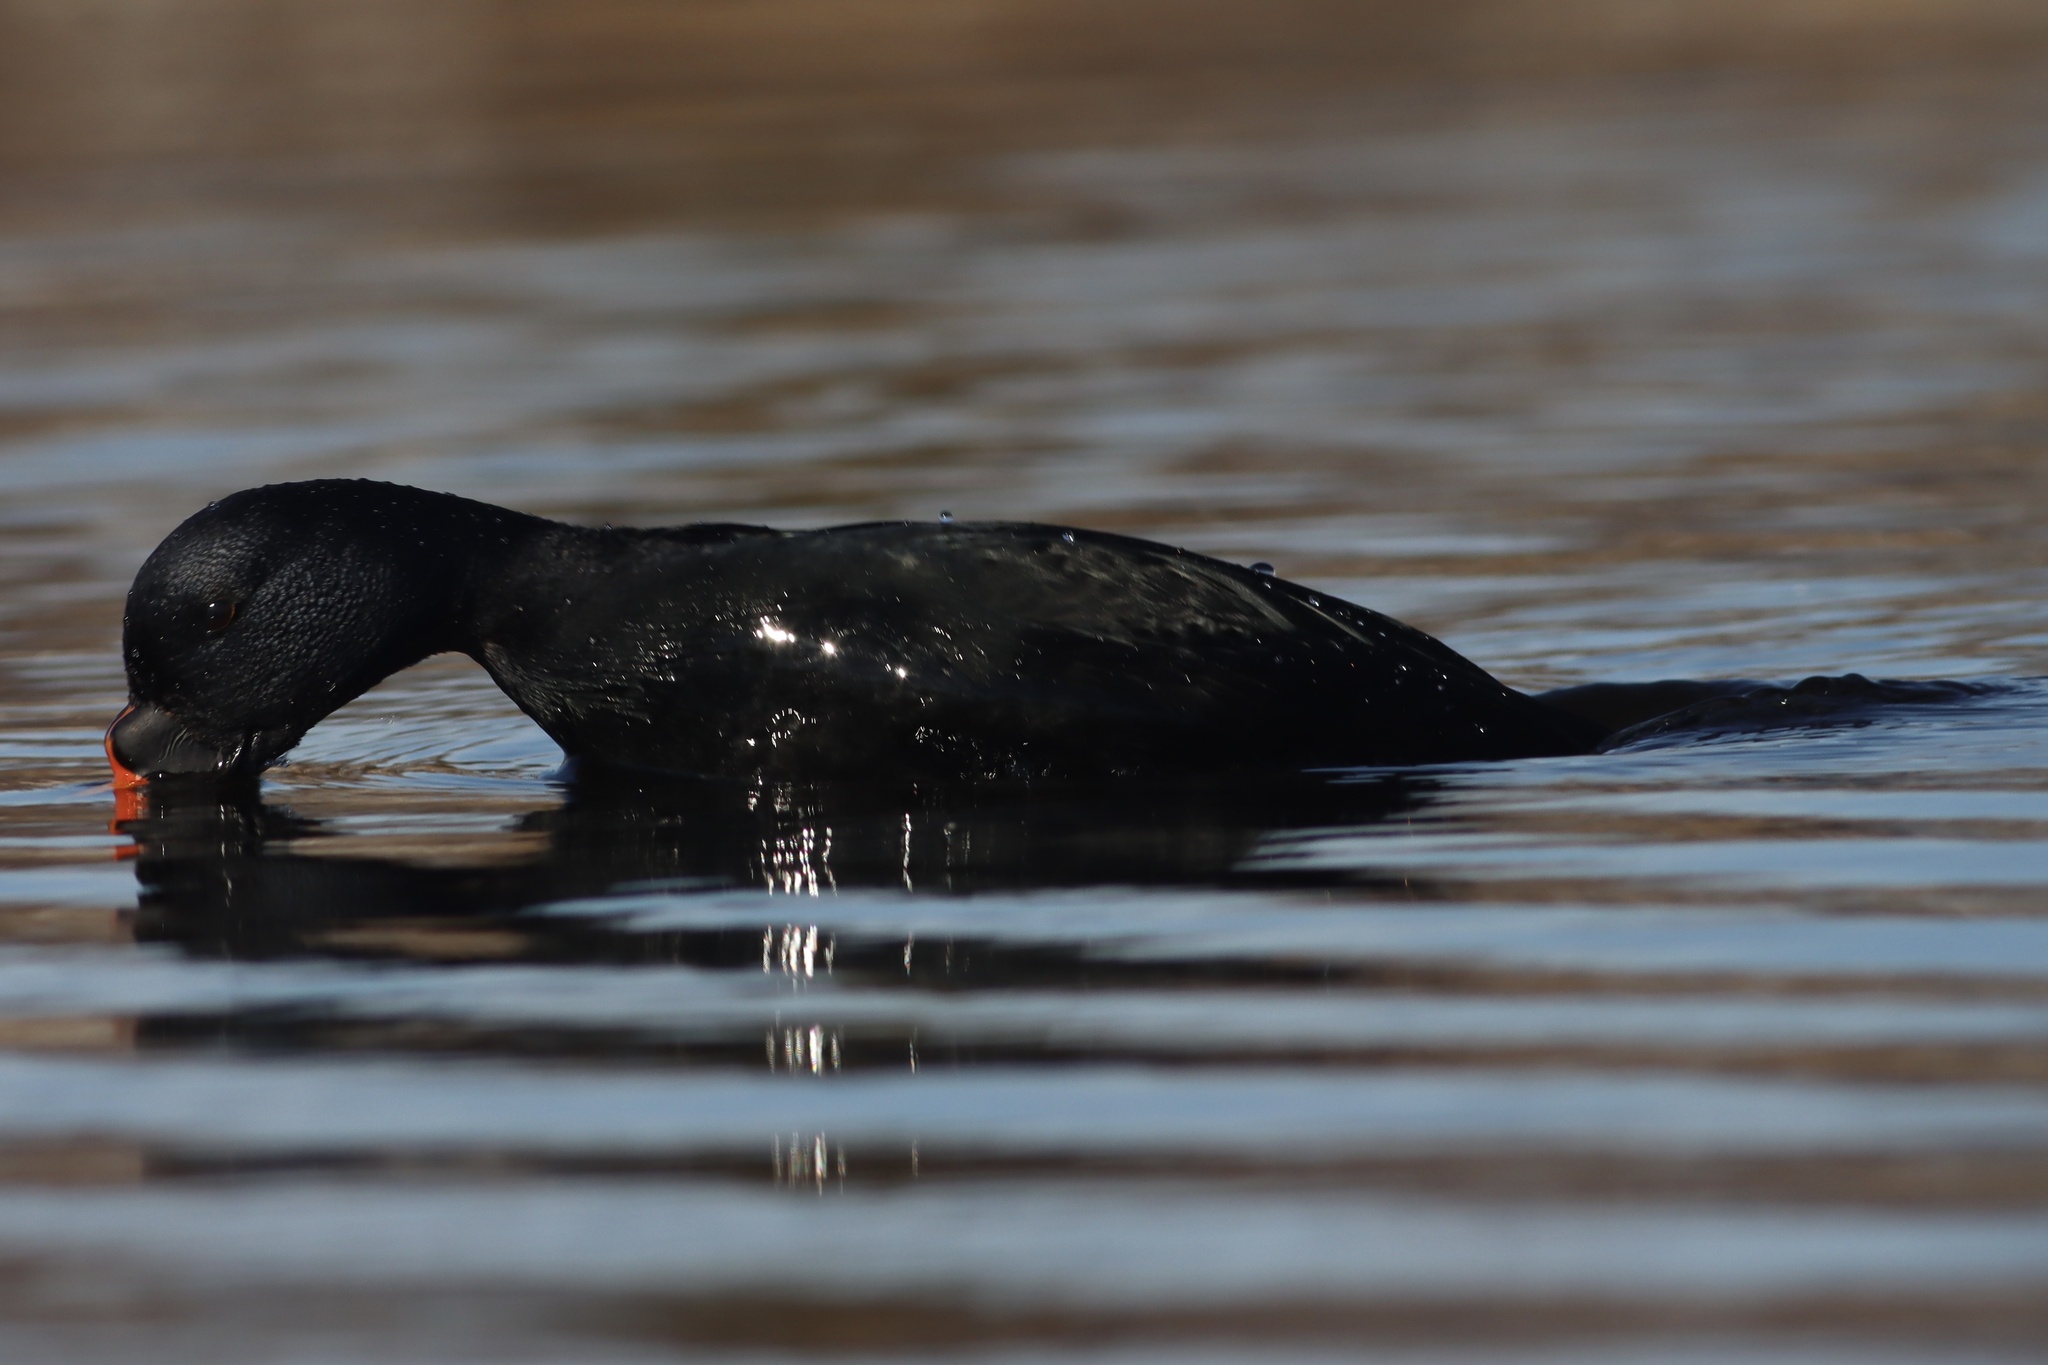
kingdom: Animalia
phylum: Chordata
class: Aves
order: Anseriformes
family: Anatidae
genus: Melanitta
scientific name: Melanitta nigra
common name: Common scoter
